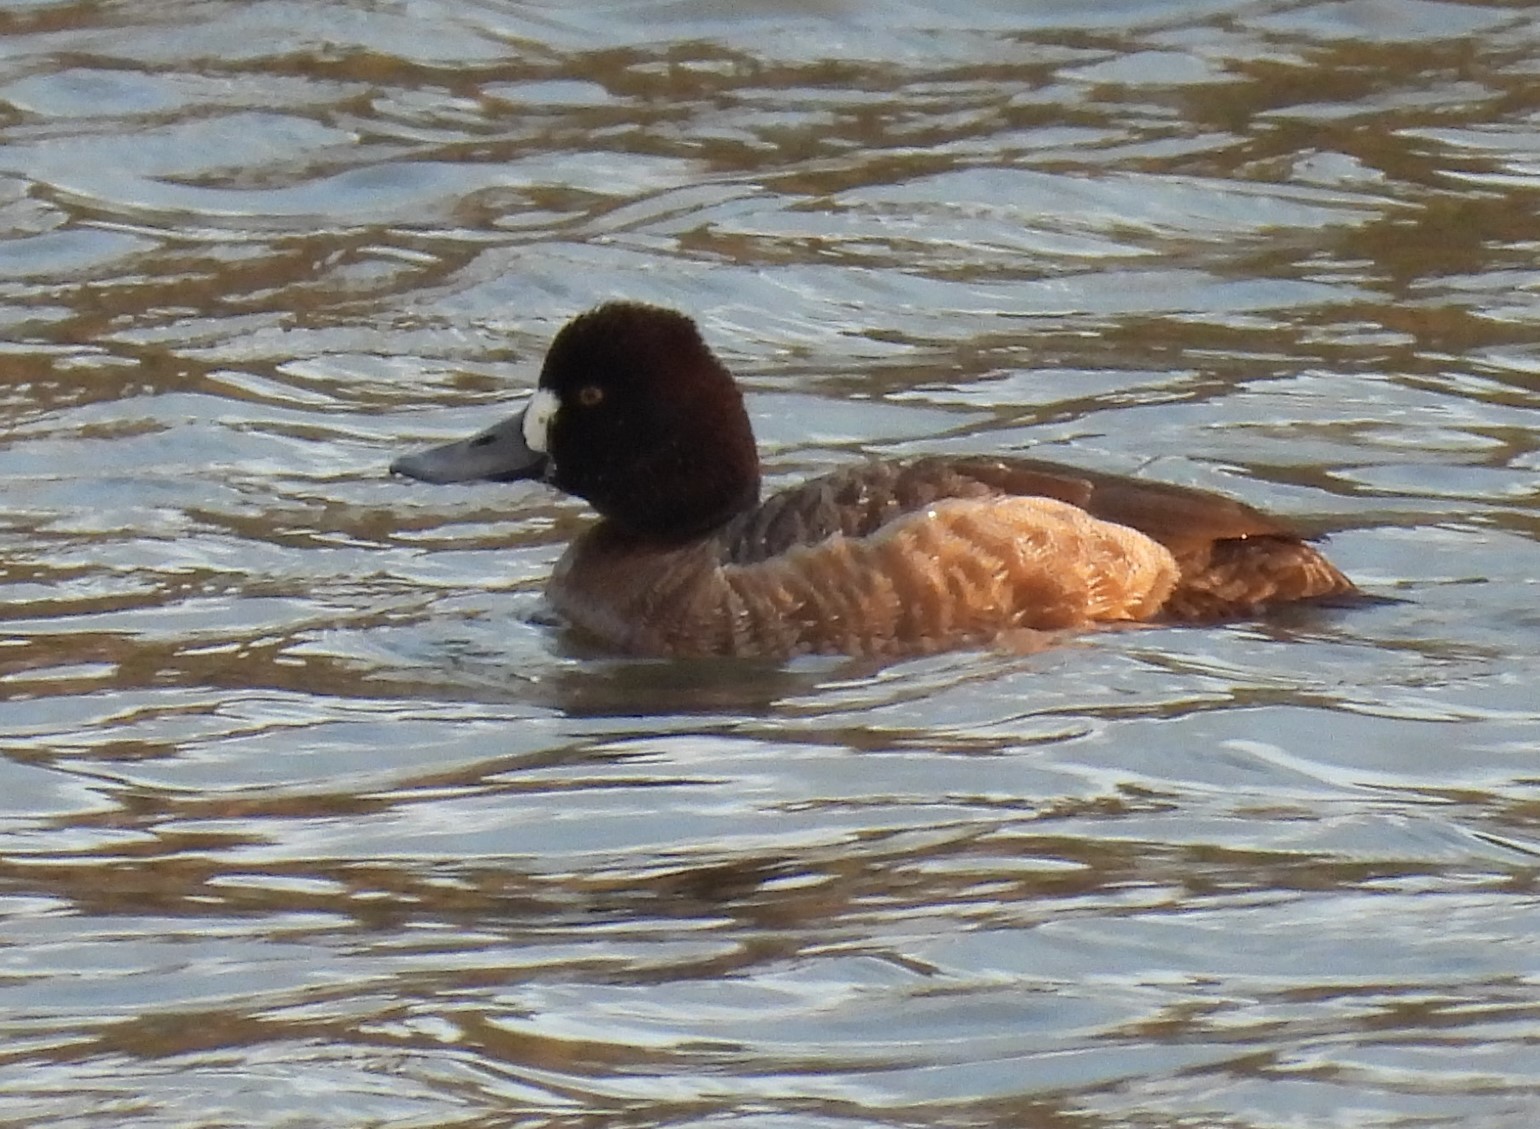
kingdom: Animalia
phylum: Chordata
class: Aves
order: Anseriformes
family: Anatidae
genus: Aythya
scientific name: Aythya affinis
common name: Lesser scaup
